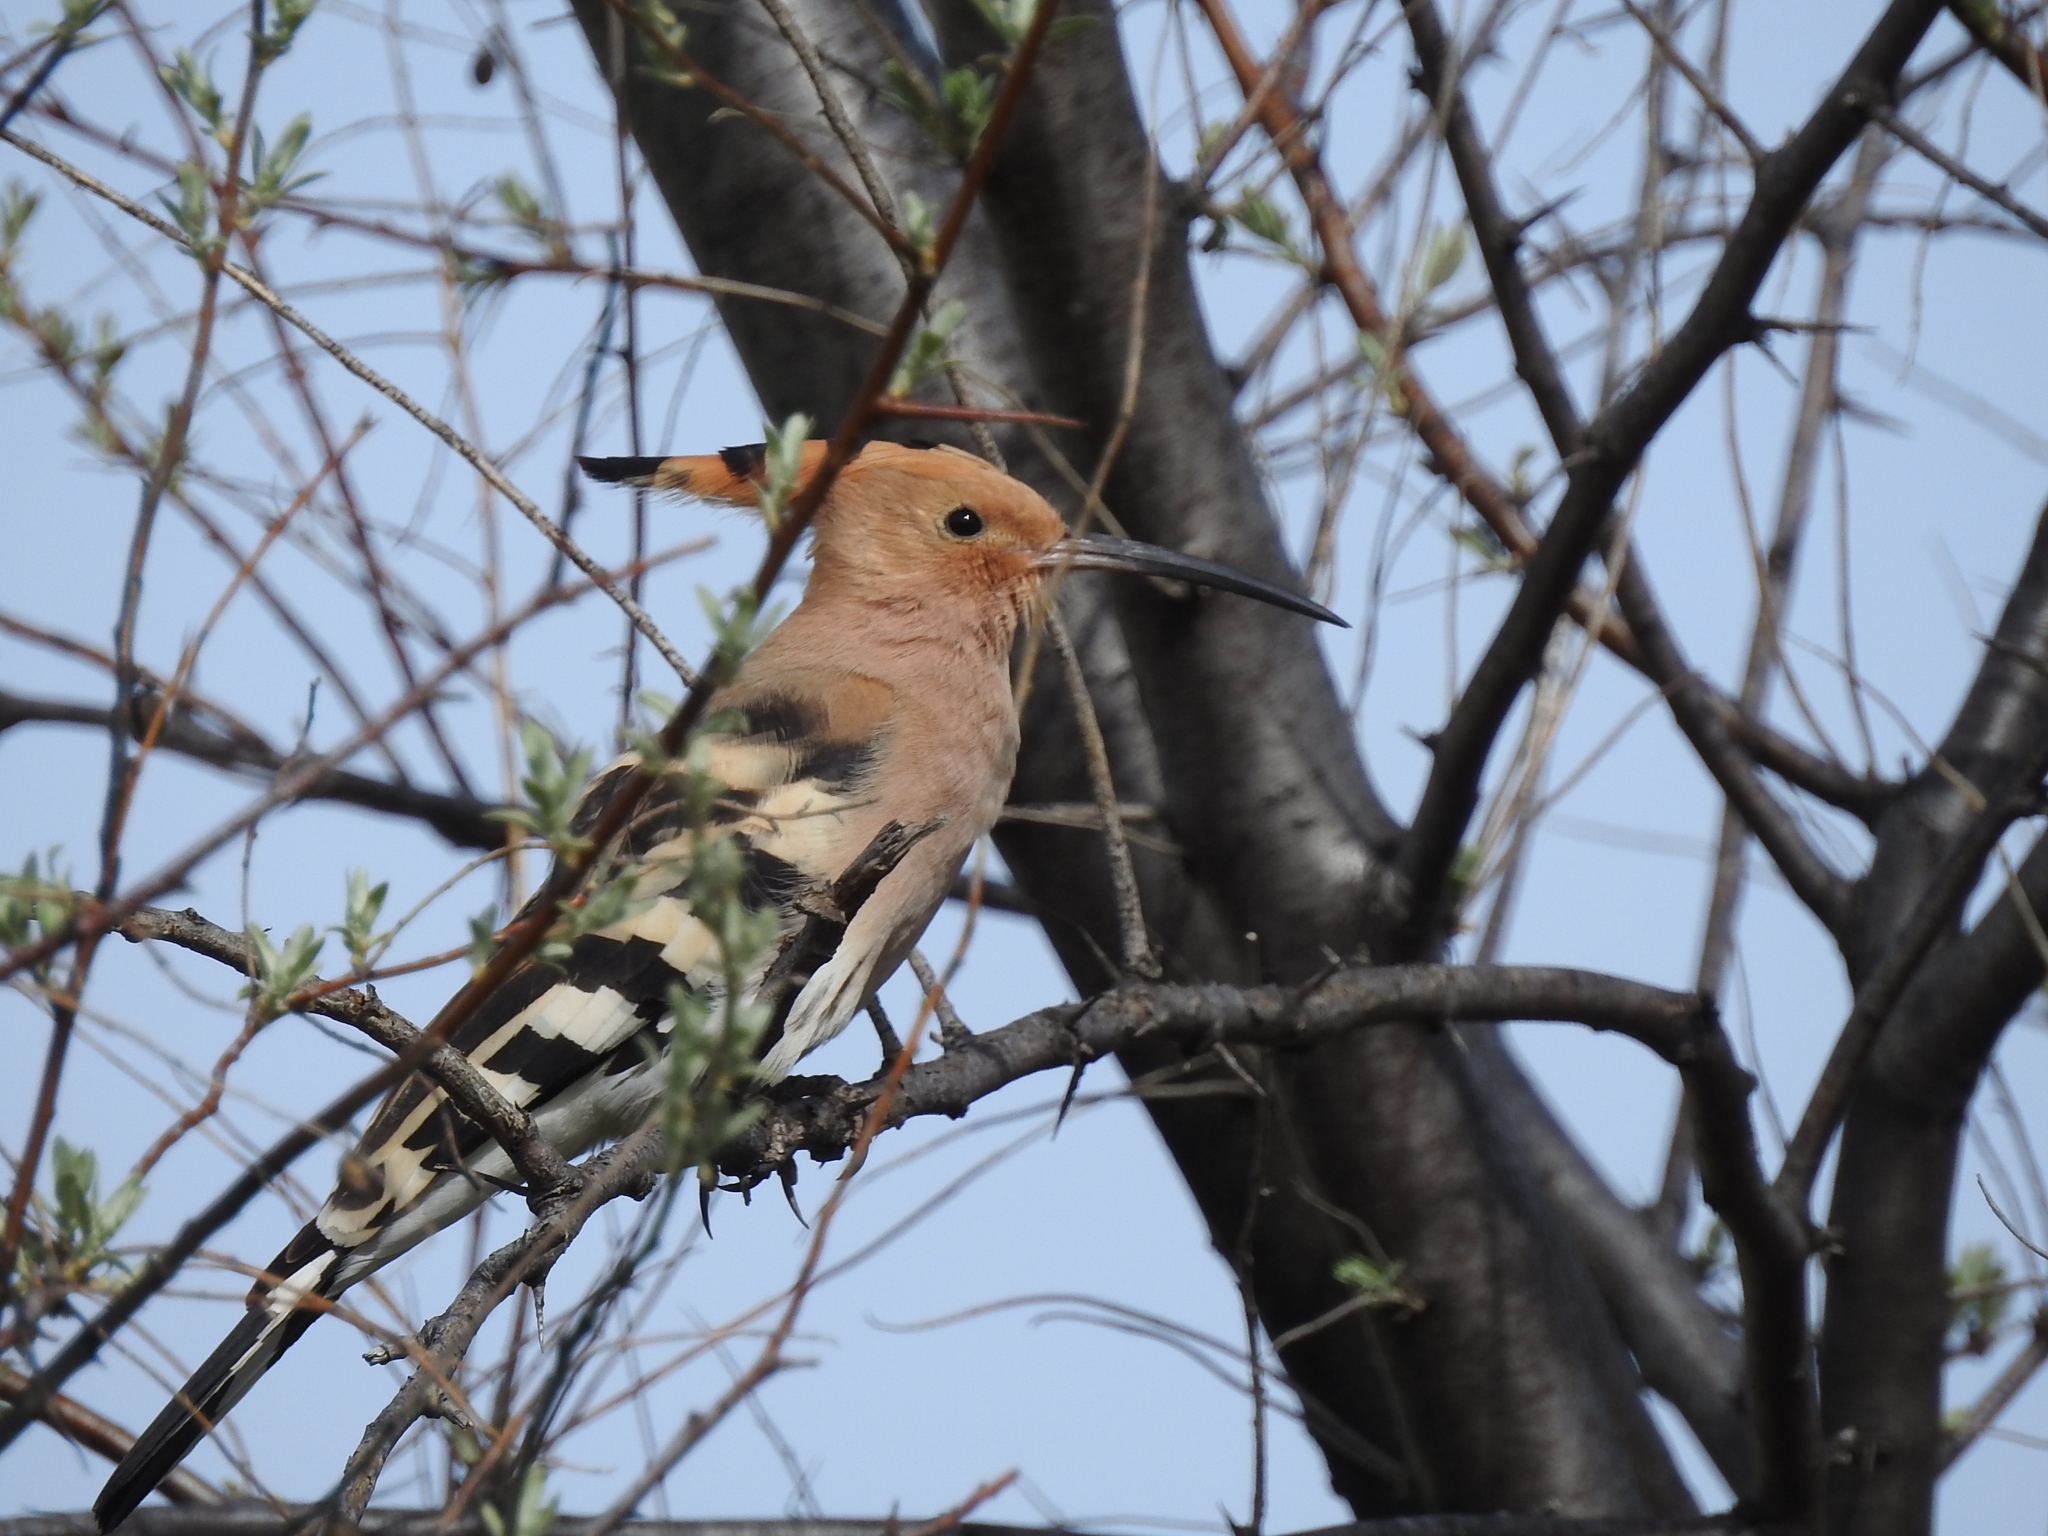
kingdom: Animalia
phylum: Chordata
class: Aves
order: Bucerotiformes
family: Upupidae
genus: Upupa
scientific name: Upupa epops
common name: Eurasian hoopoe
